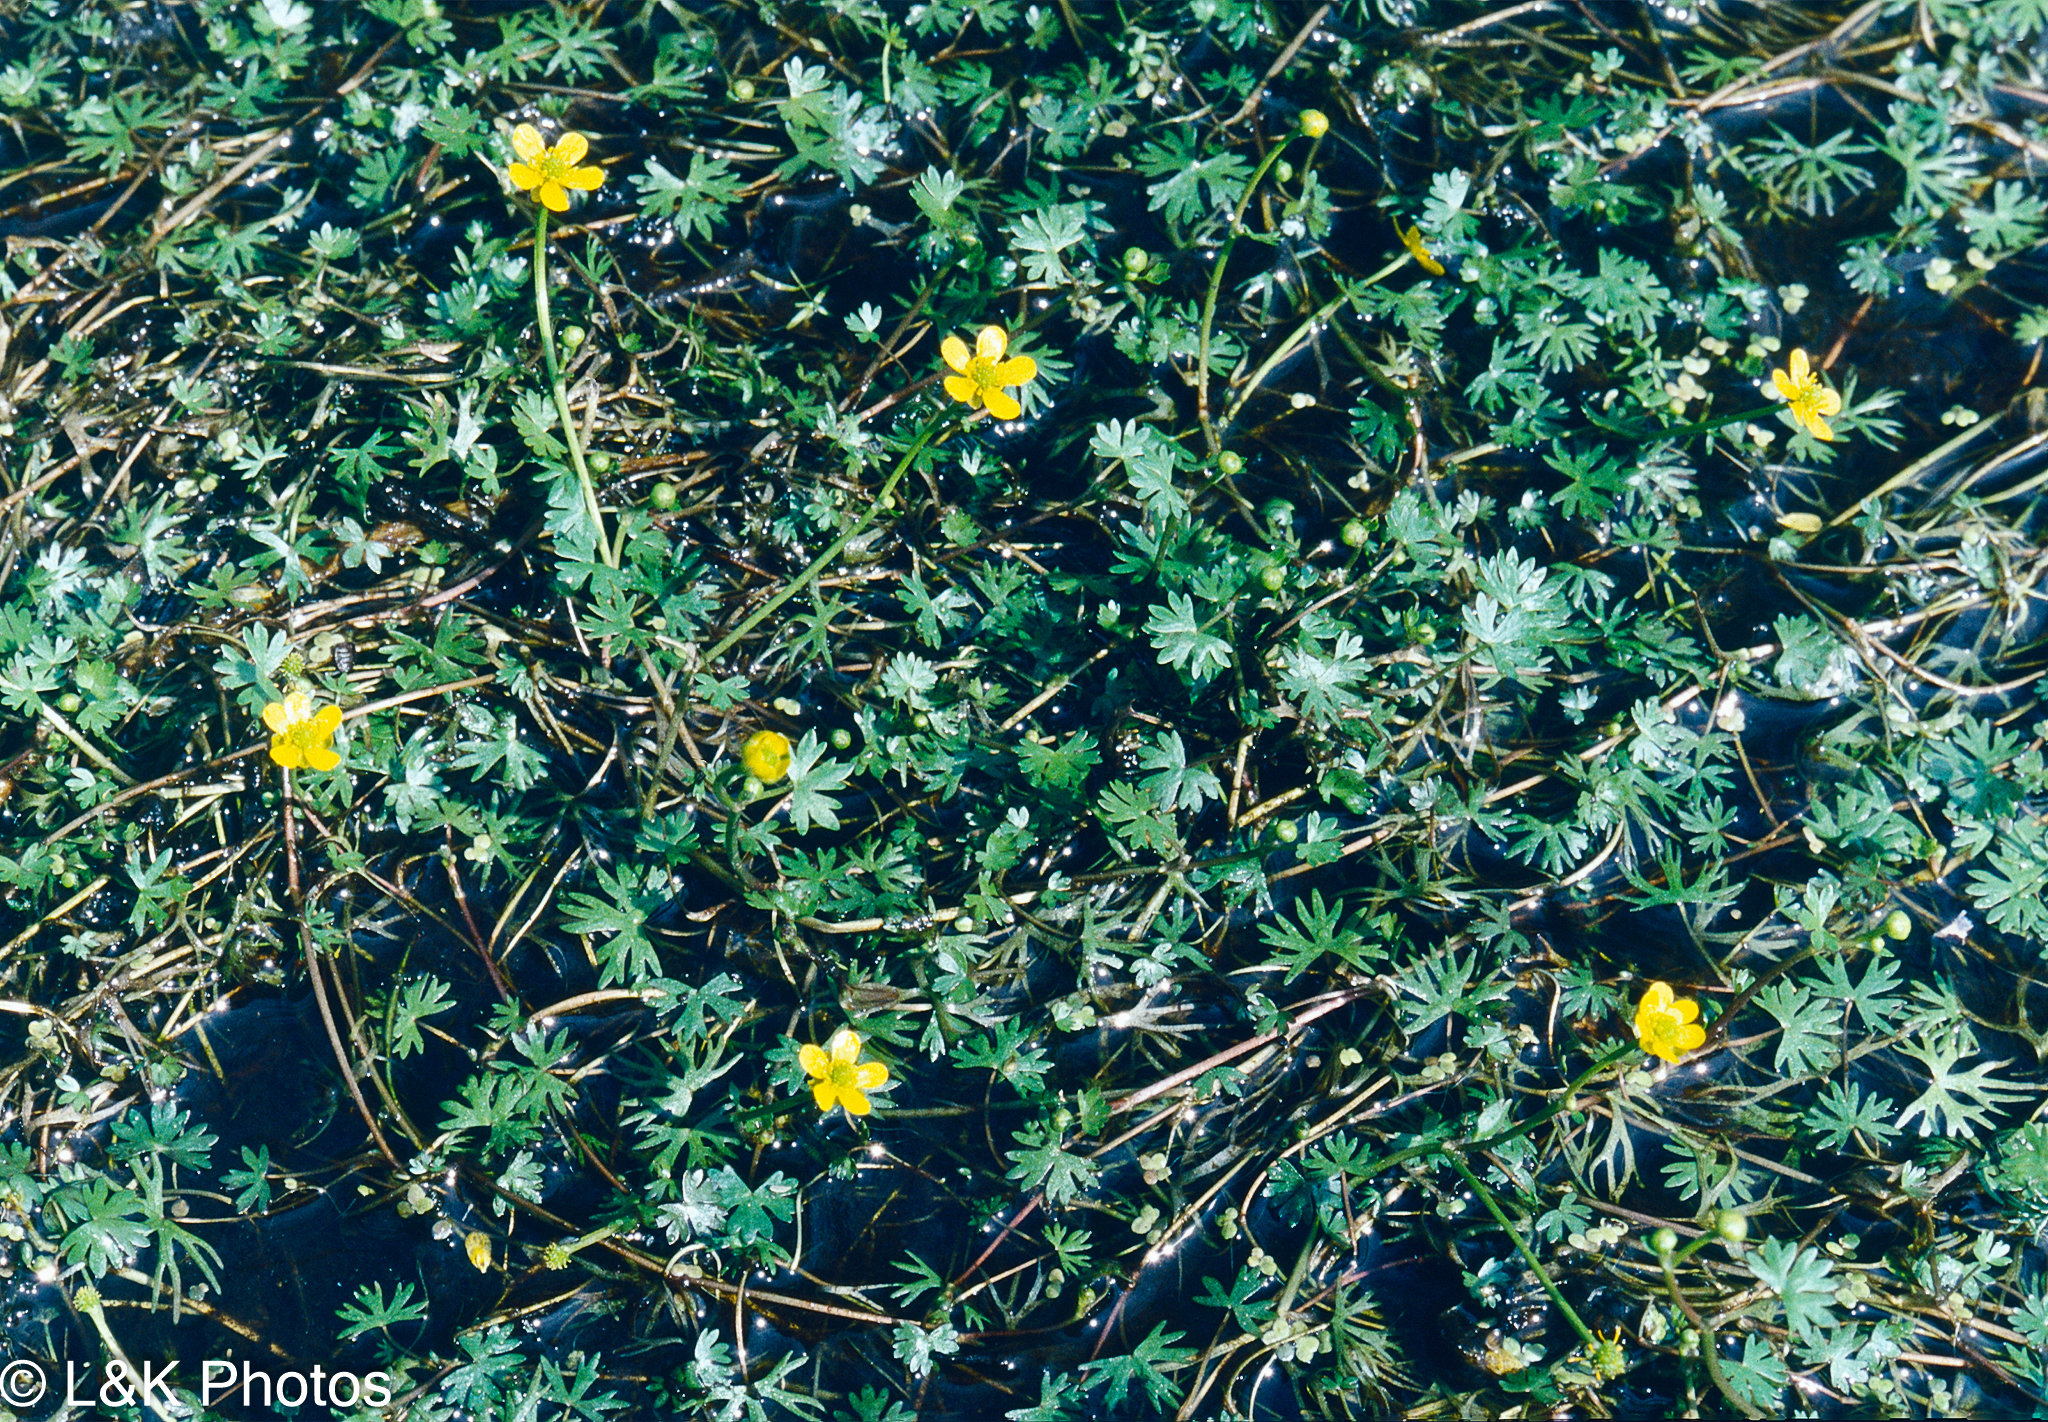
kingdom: Plantae
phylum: Tracheophyta
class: Magnoliopsida
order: Ranunculales
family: Ranunculaceae
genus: Ranunculus
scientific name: Ranunculus gmelinii
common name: Gmelin's buttercup
